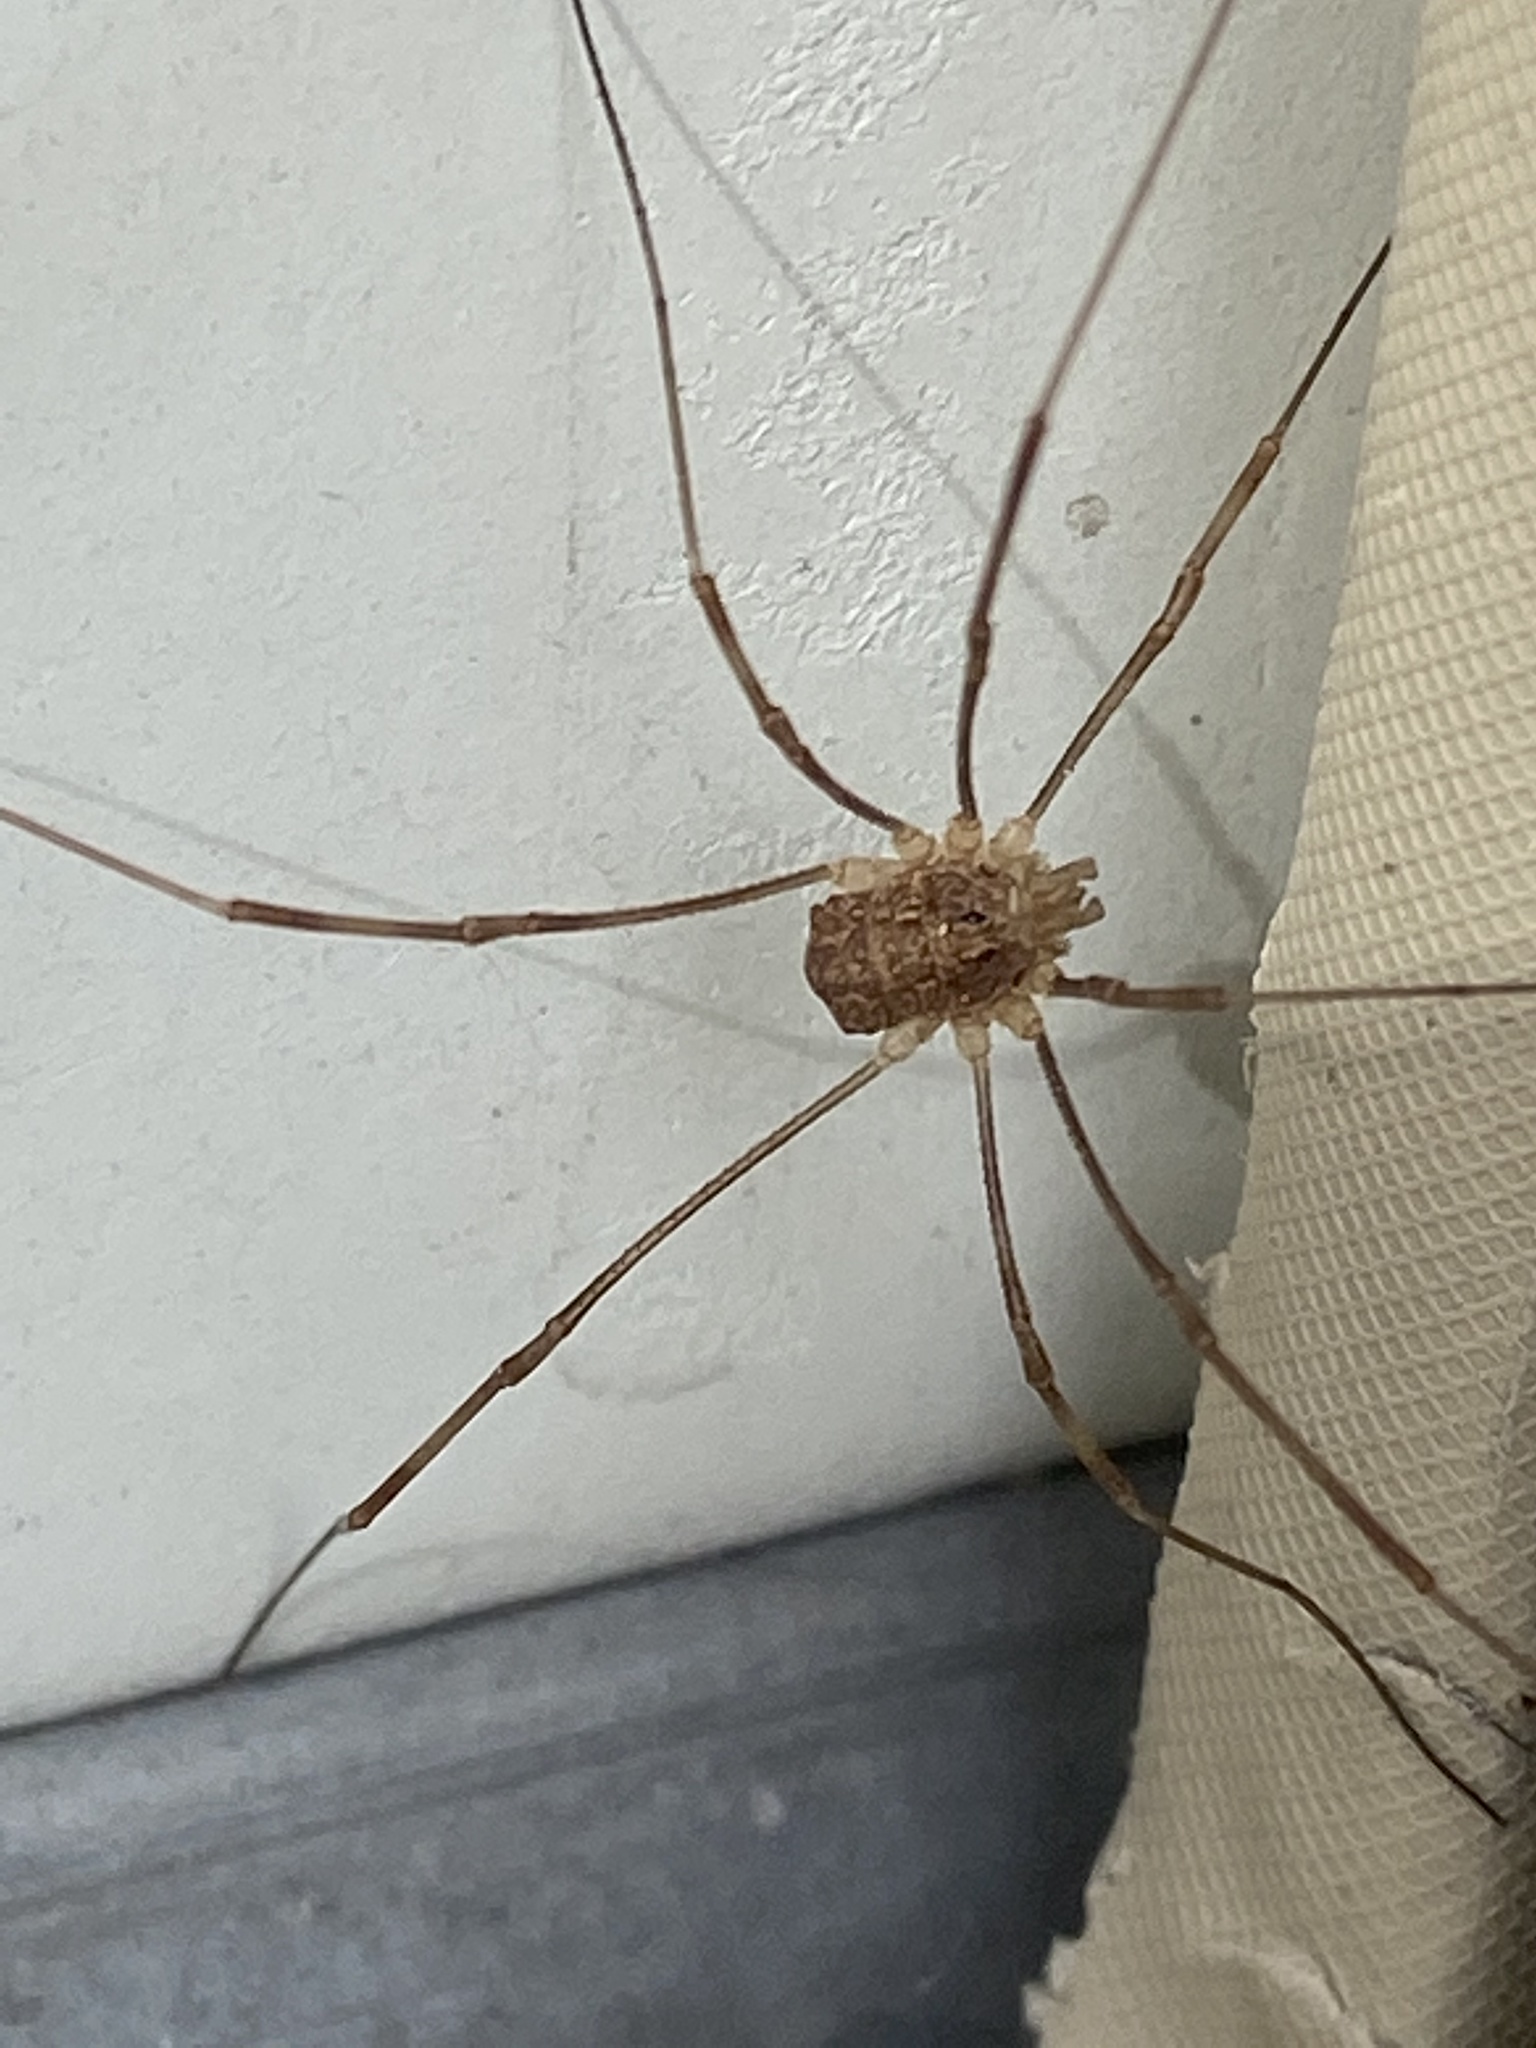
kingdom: Animalia
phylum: Arthropoda
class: Arachnida
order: Opiliones
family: Phalangiidae
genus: Rilaena
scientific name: Rilaena triangularis
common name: Spring harvestman
